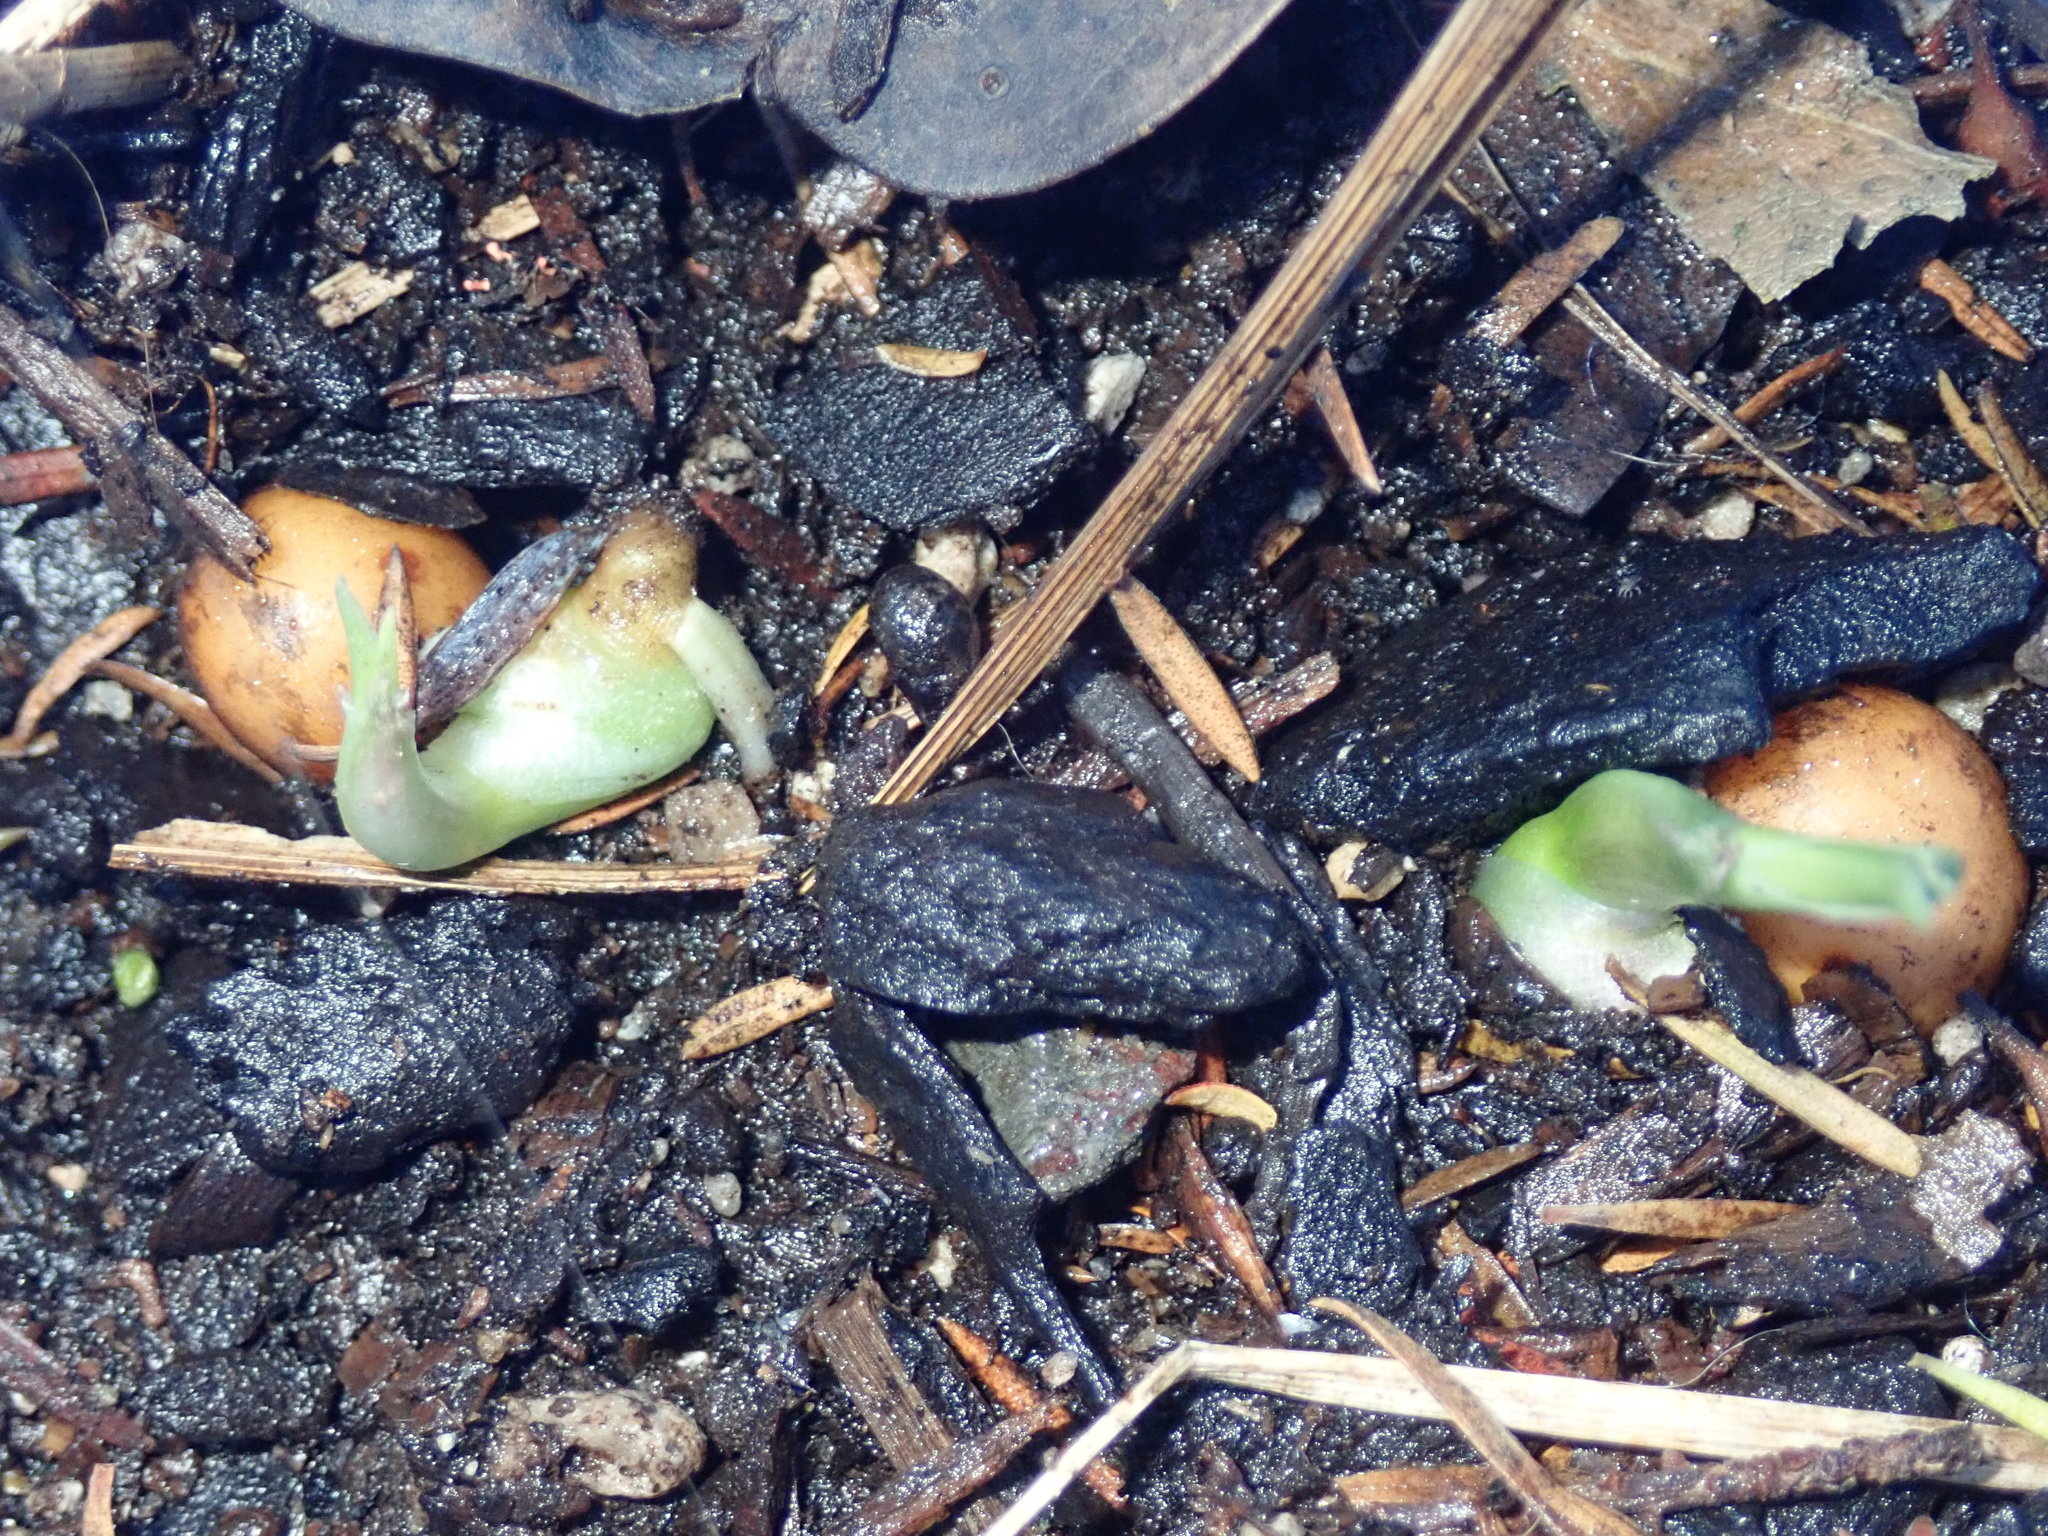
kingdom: Plantae
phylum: Tracheophyta
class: Liliopsida
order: Asparagales
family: Asparagaceae
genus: Dracaena
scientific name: Dracaena draco
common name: Canary island dragon tree
